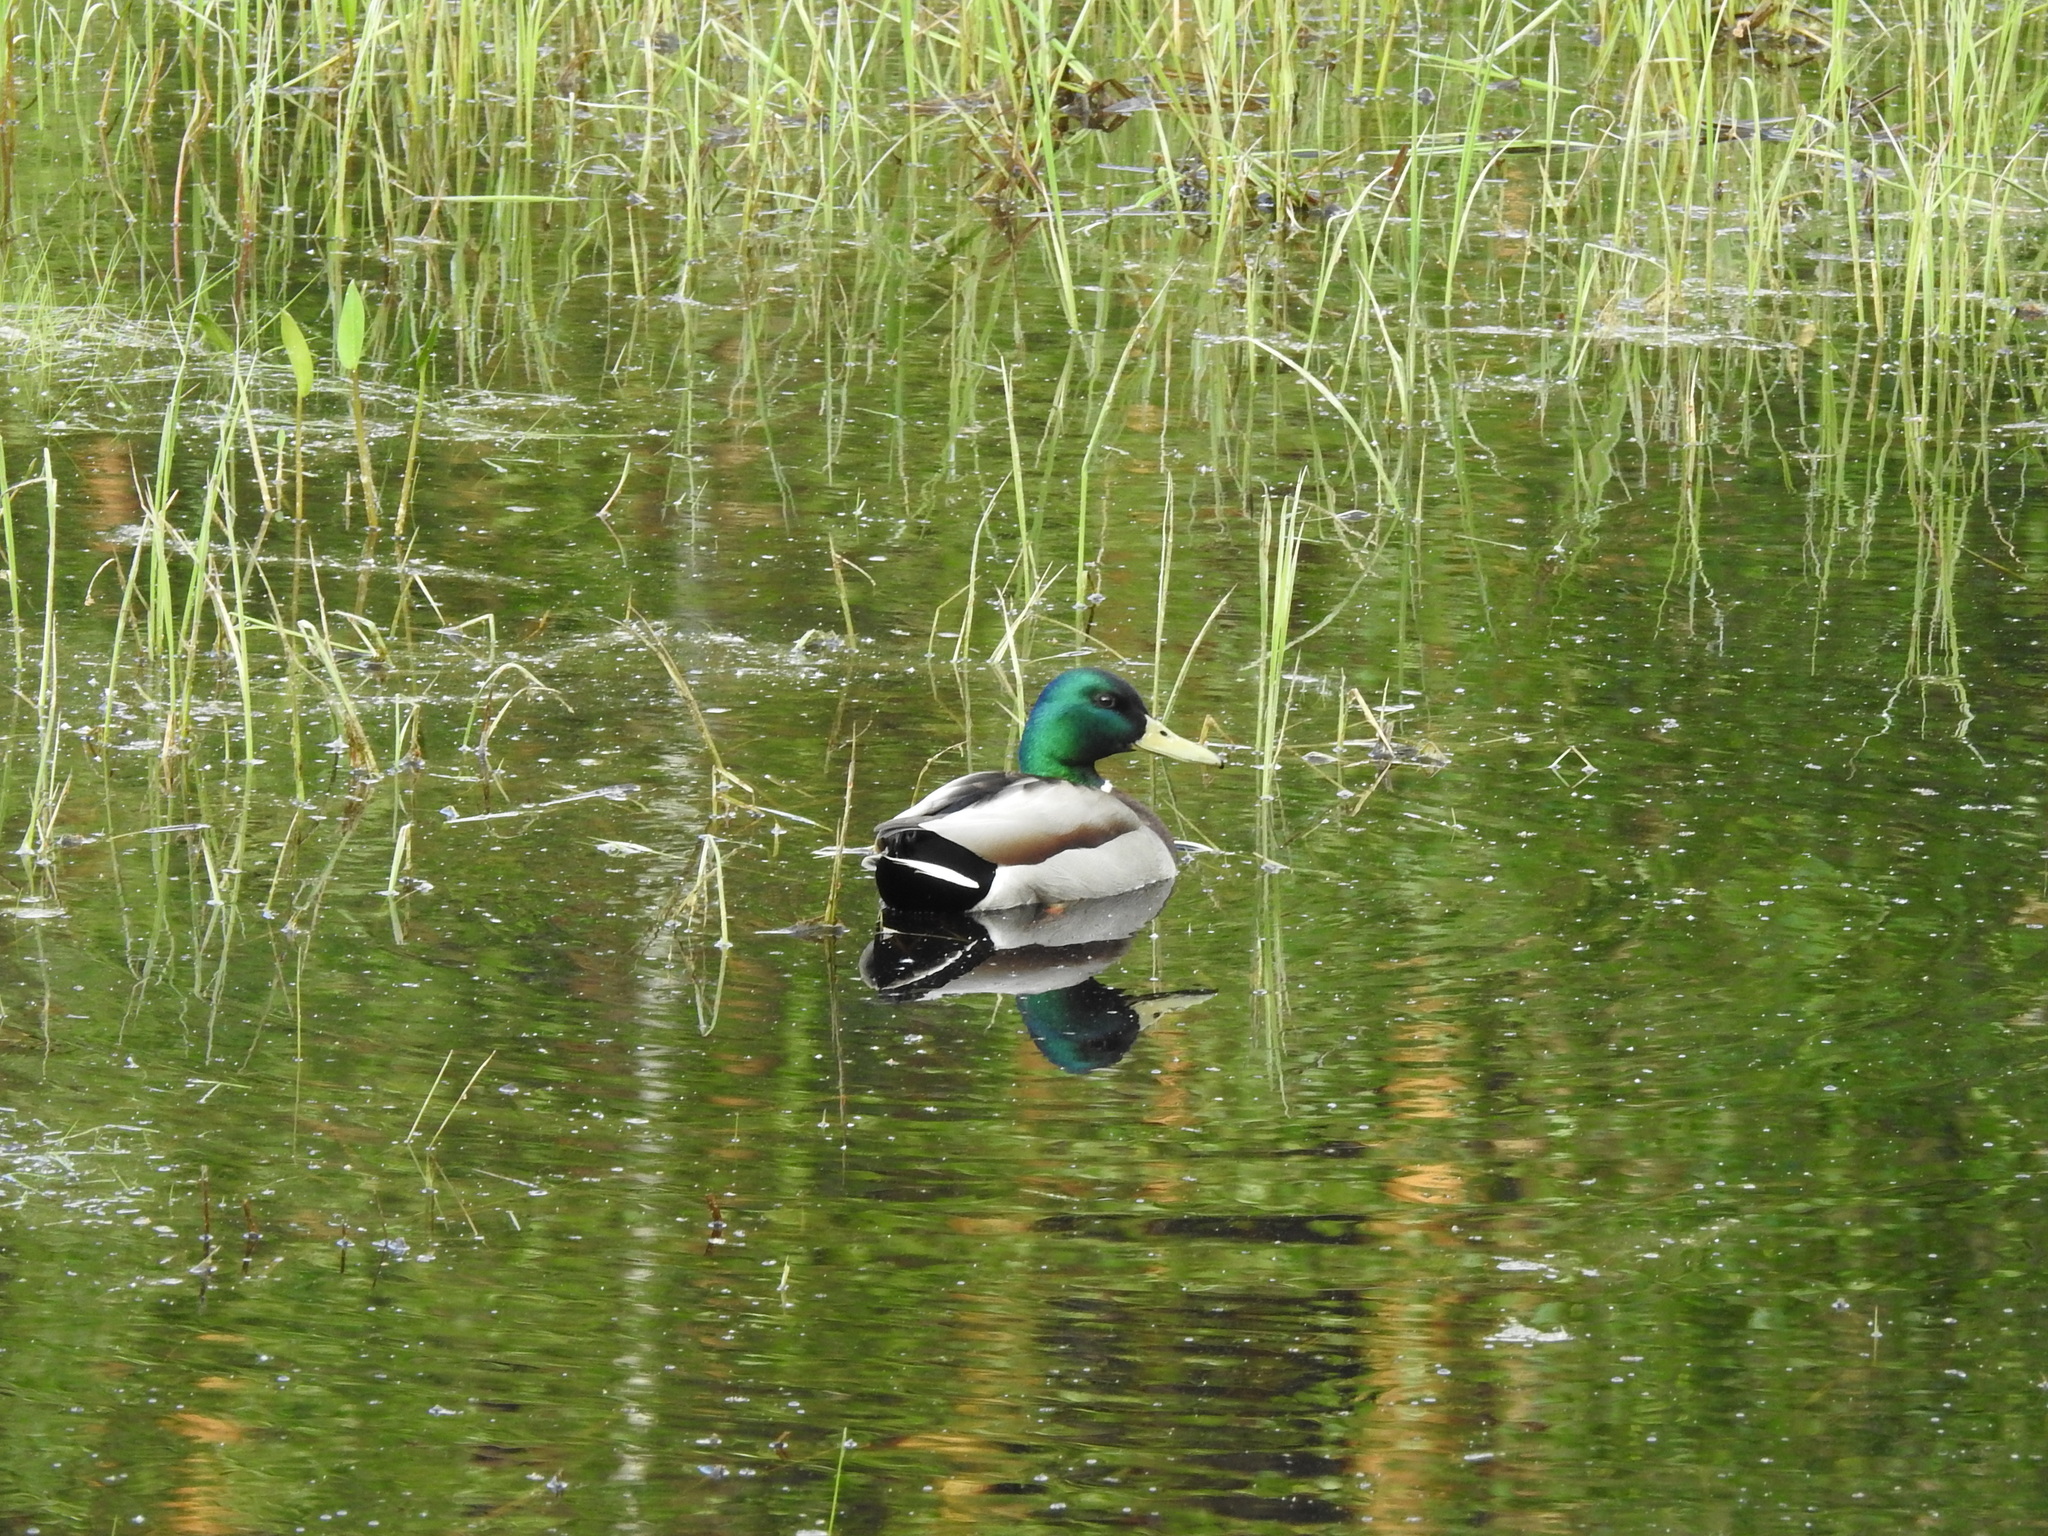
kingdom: Animalia
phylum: Chordata
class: Aves
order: Anseriformes
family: Anatidae
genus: Anas
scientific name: Anas platyrhynchos
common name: Mallard
